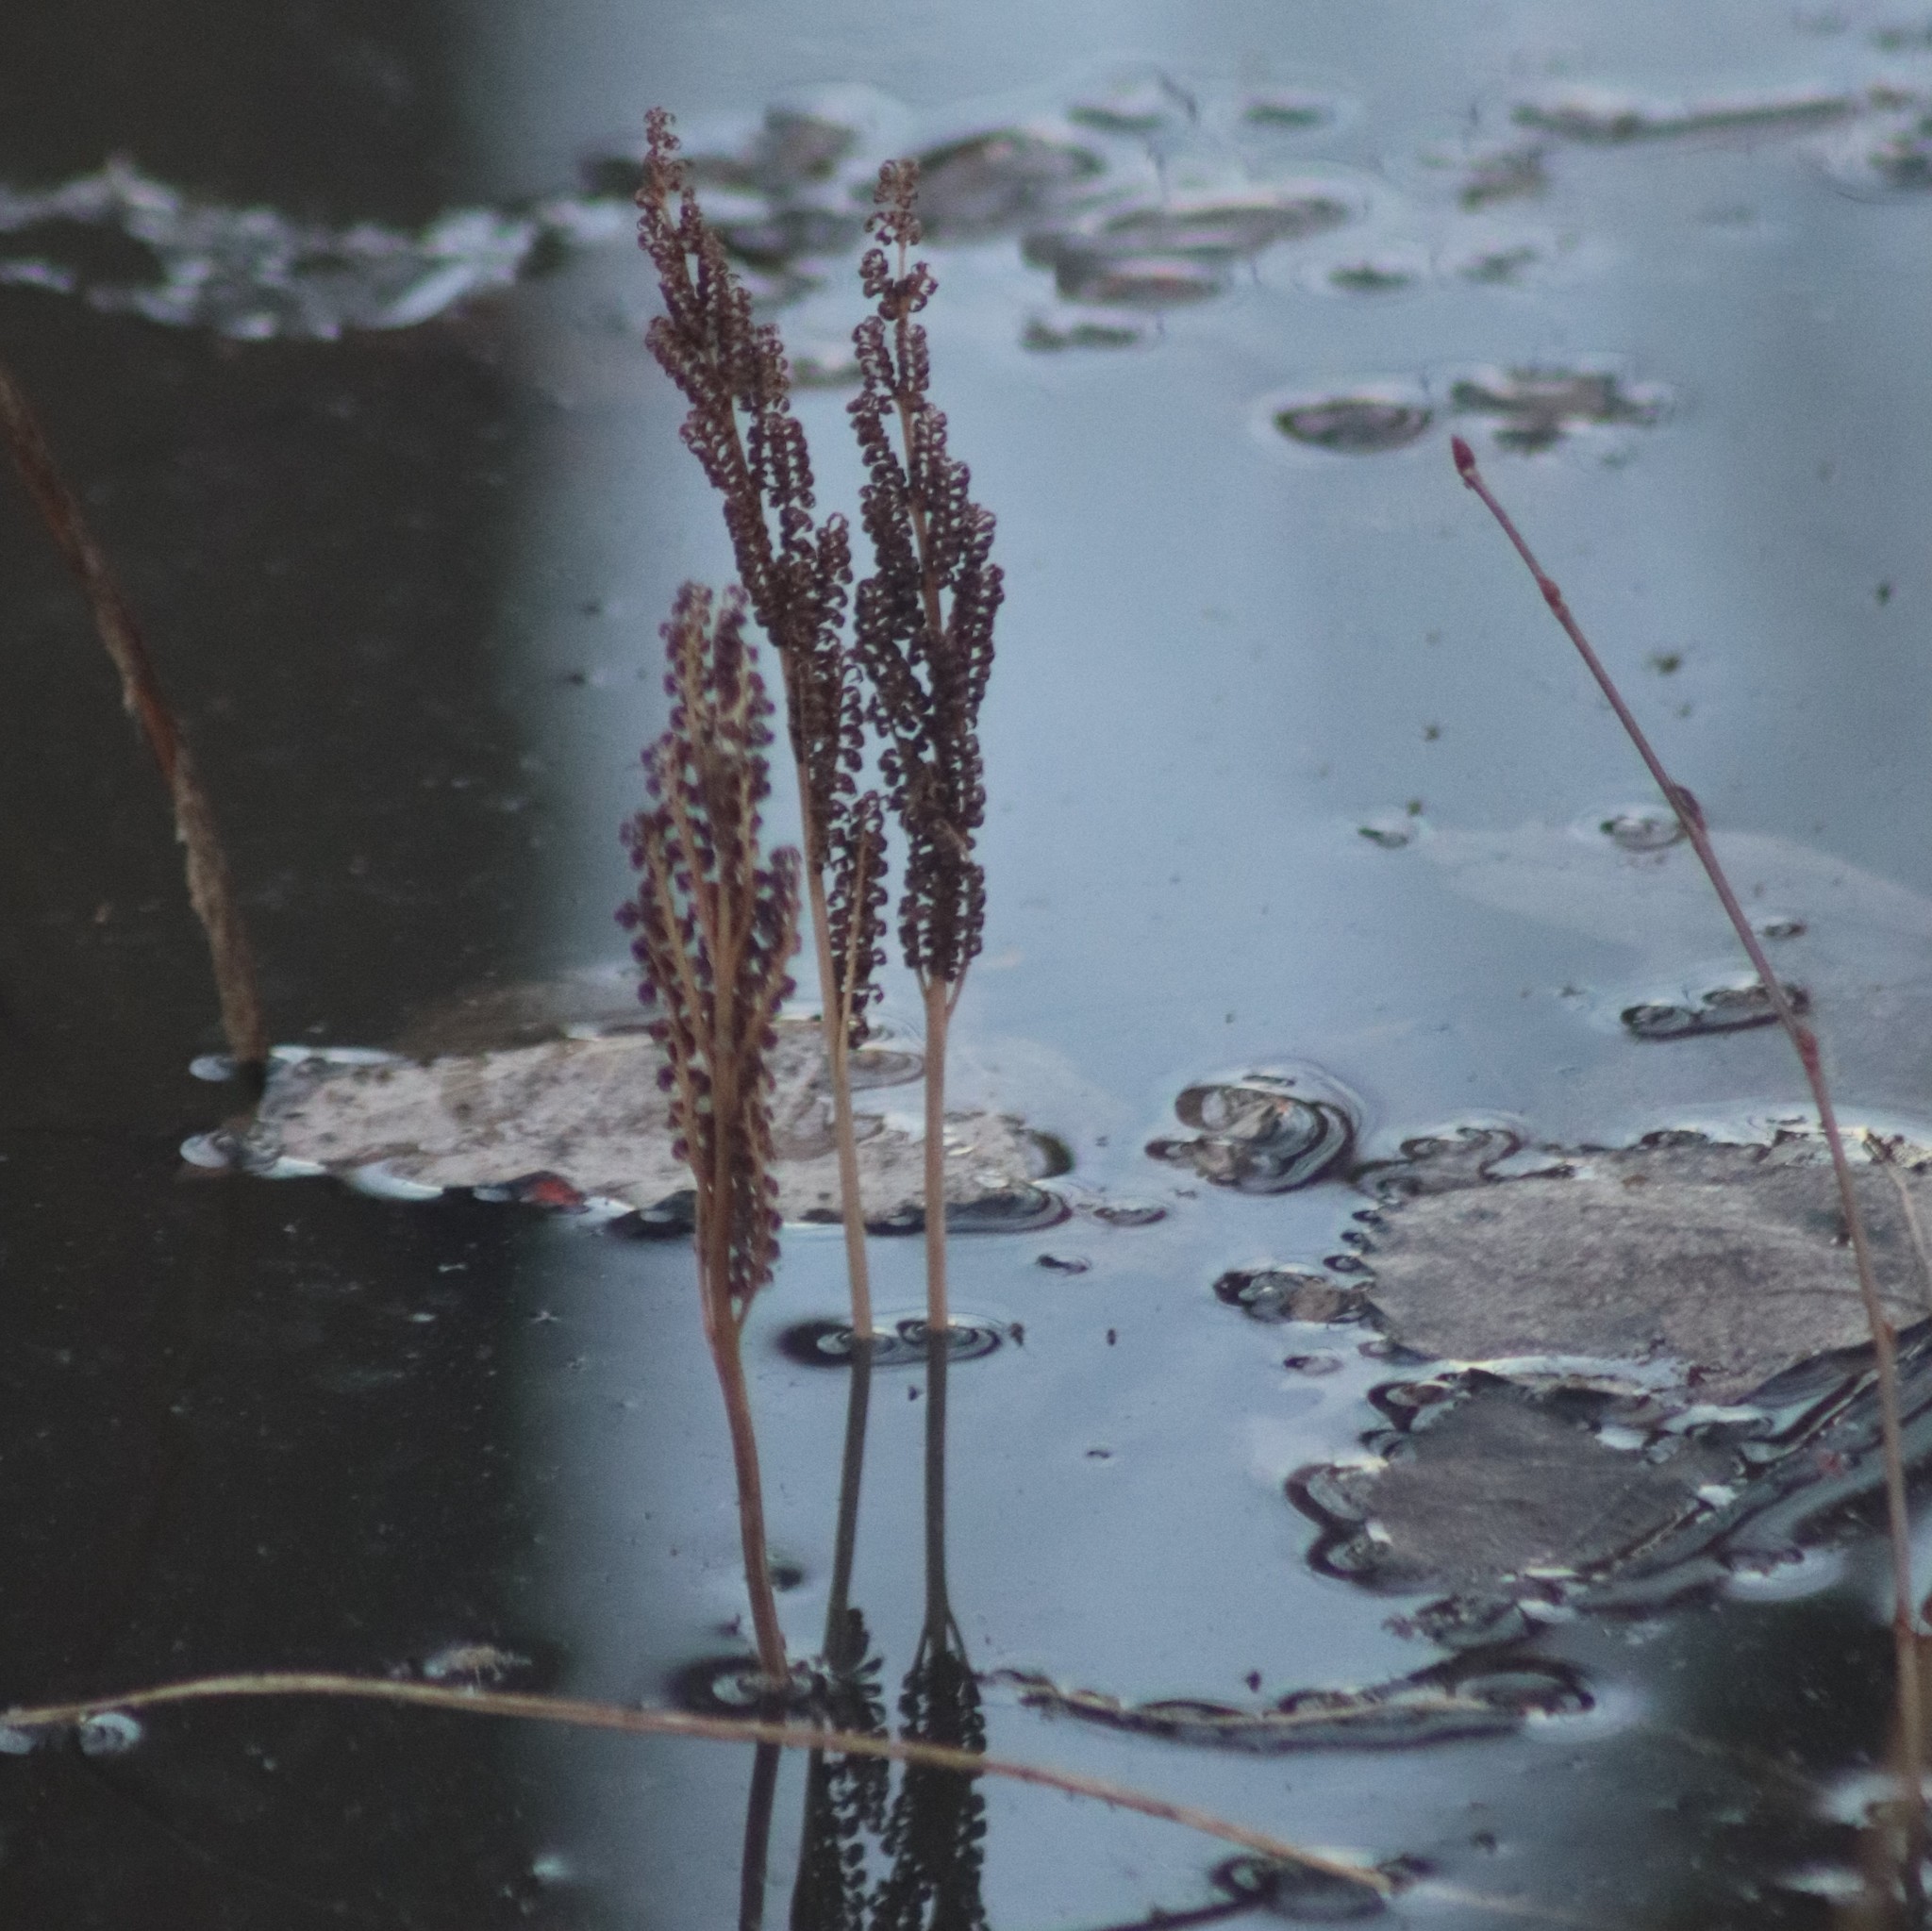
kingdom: Plantae
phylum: Tracheophyta
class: Polypodiopsida
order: Polypodiales
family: Onocleaceae
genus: Onoclea
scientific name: Onoclea sensibilis
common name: Sensitive fern
